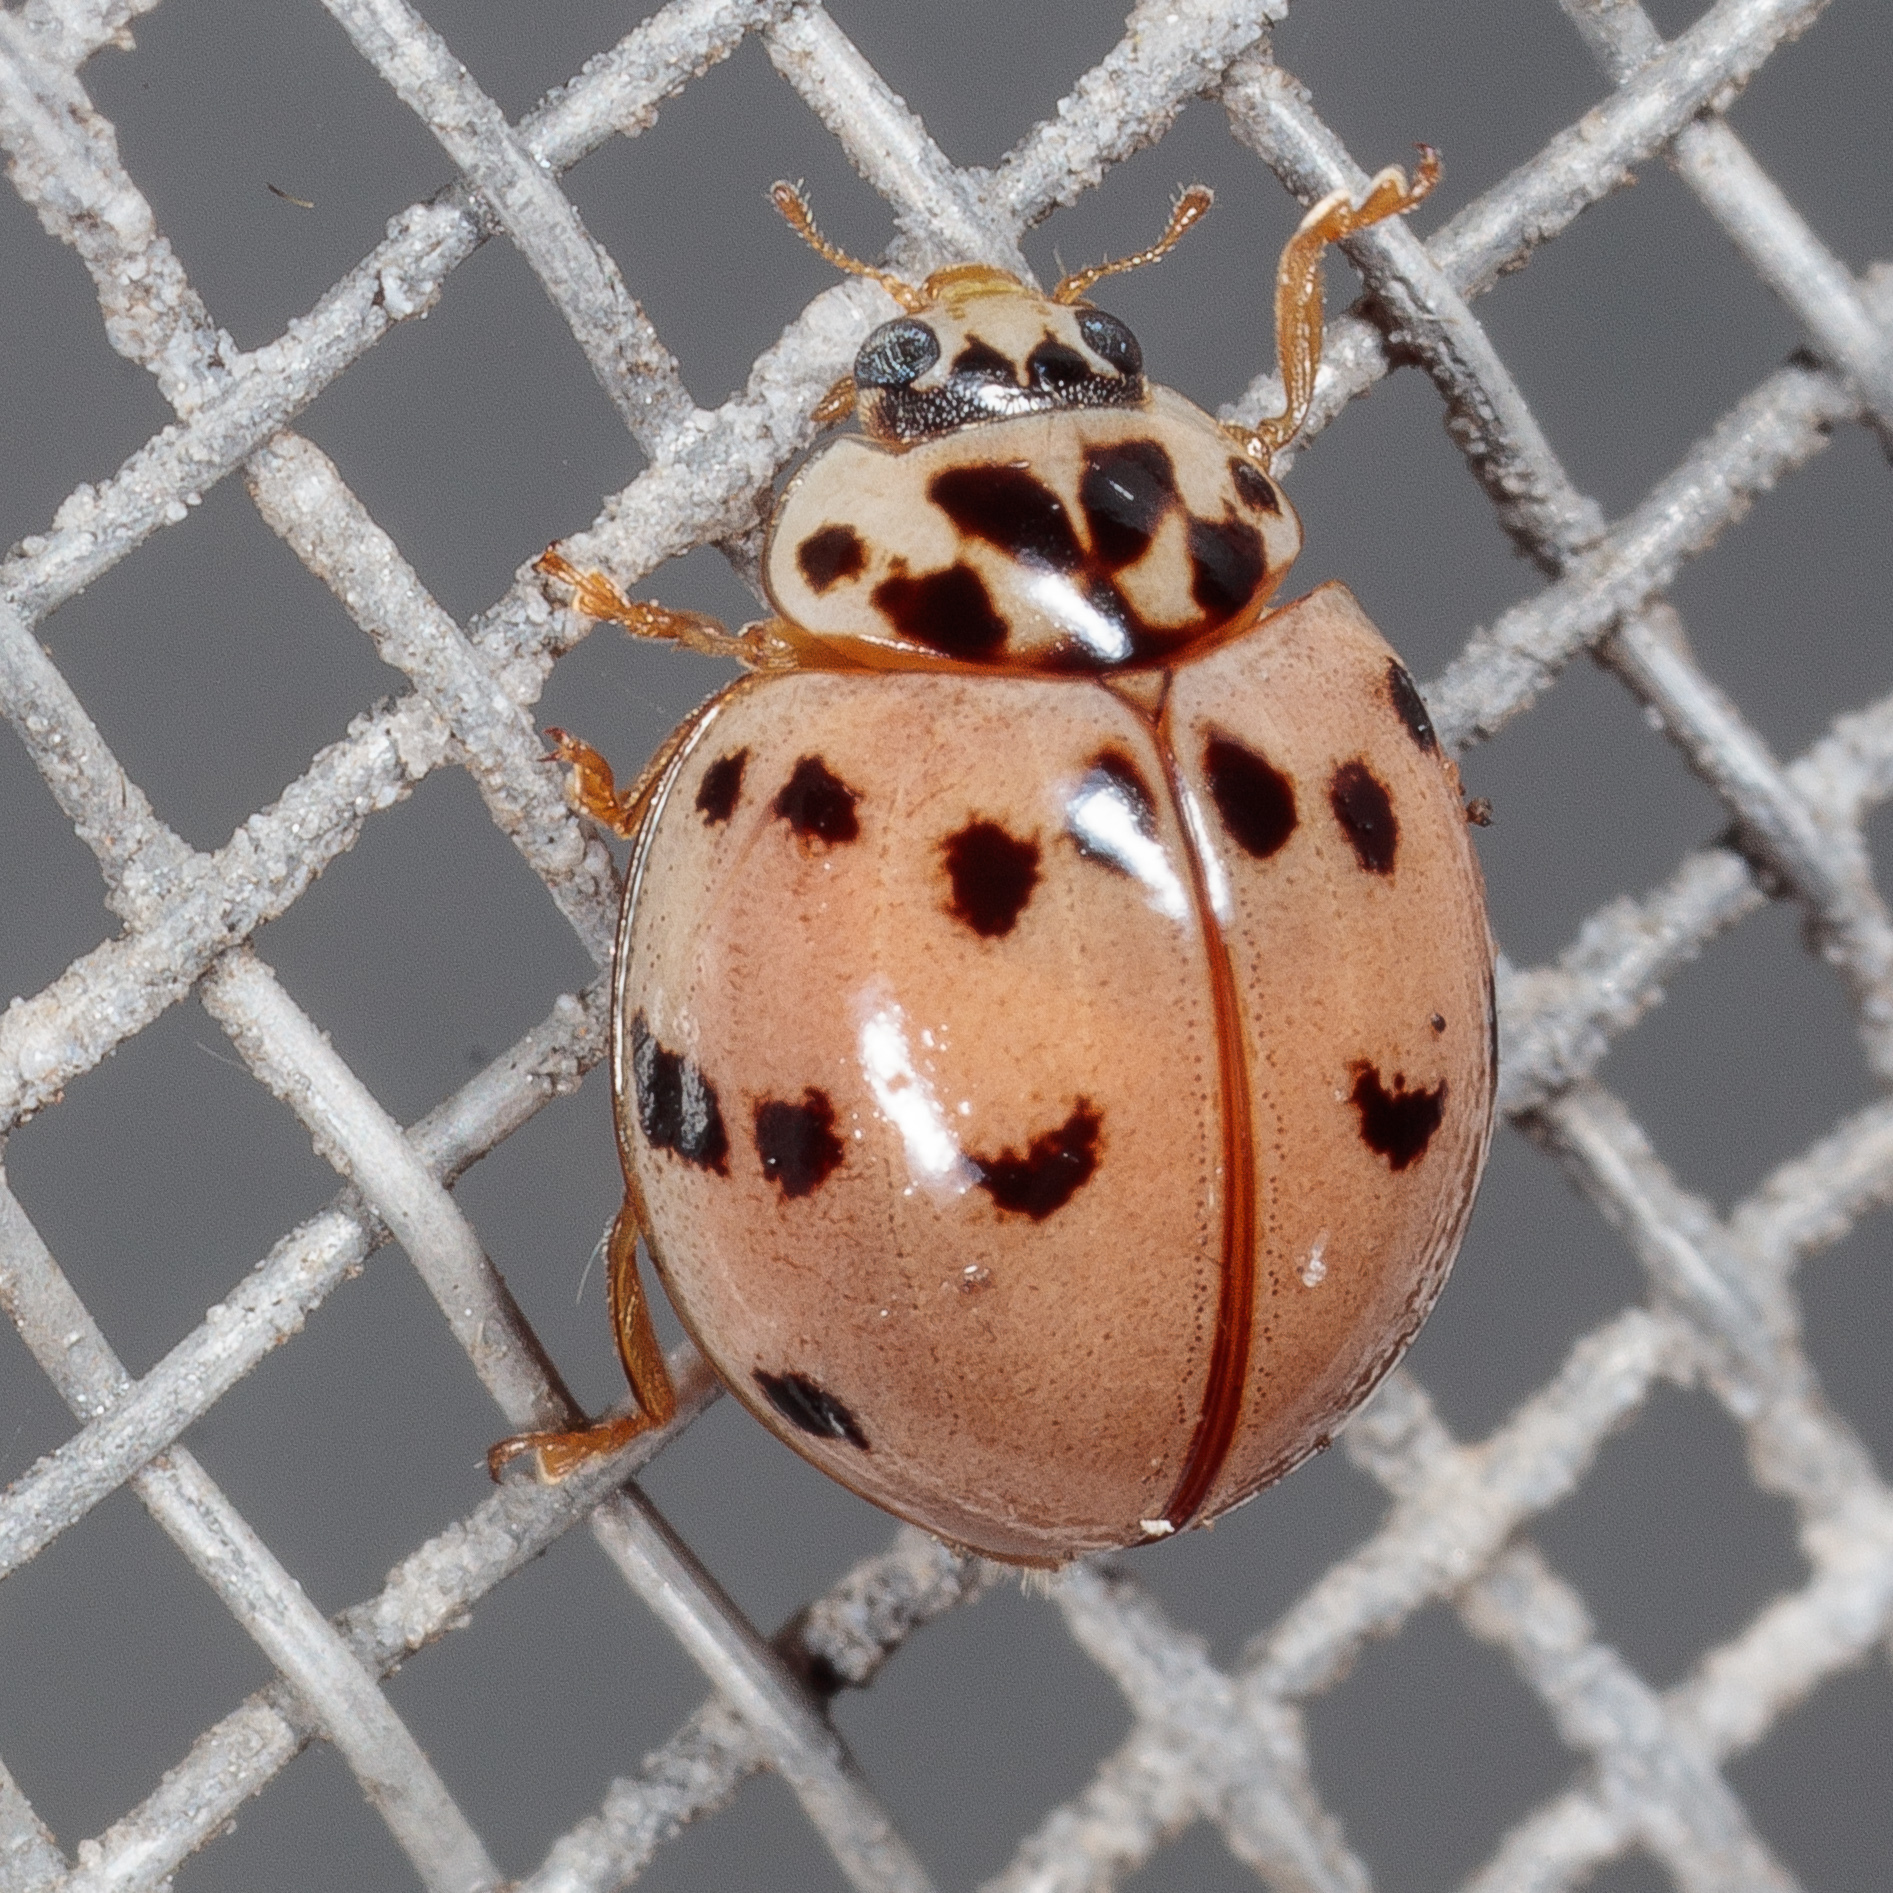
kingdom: Animalia
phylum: Arthropoda
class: Insecta
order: Coleoptera
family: Coccinellidae
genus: Olla
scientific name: Olla v-nigrum
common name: Ashy gray lady beetle
